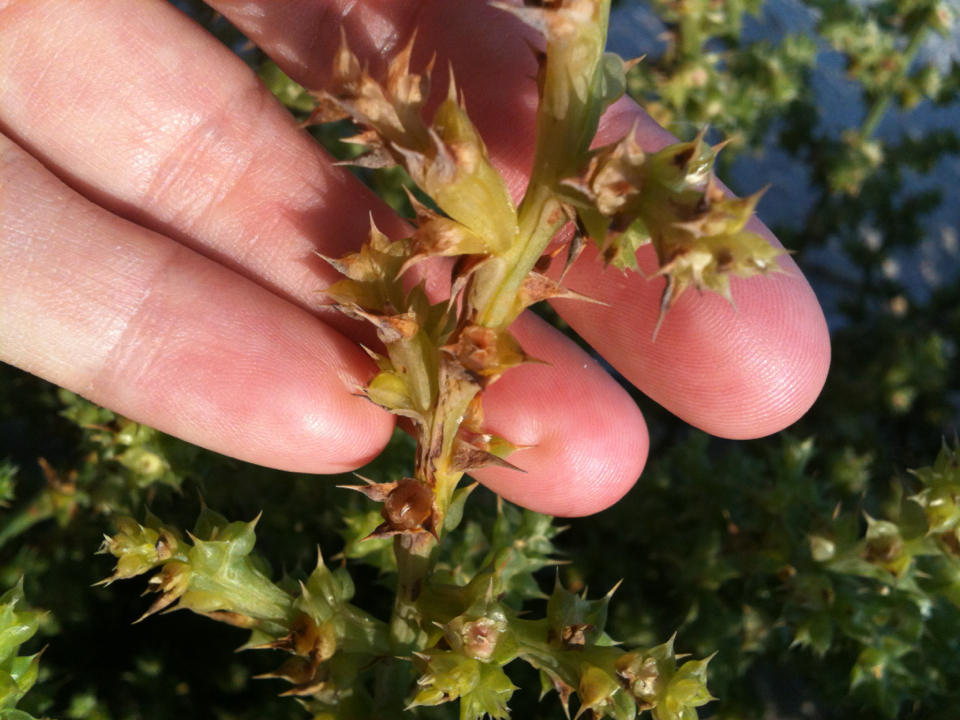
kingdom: Plantae
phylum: Tracheophyta
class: Magnoliopsida
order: Caryophyllales
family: Amaranthaceae
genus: Salsola
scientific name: Salsola kali
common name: Saltwort
